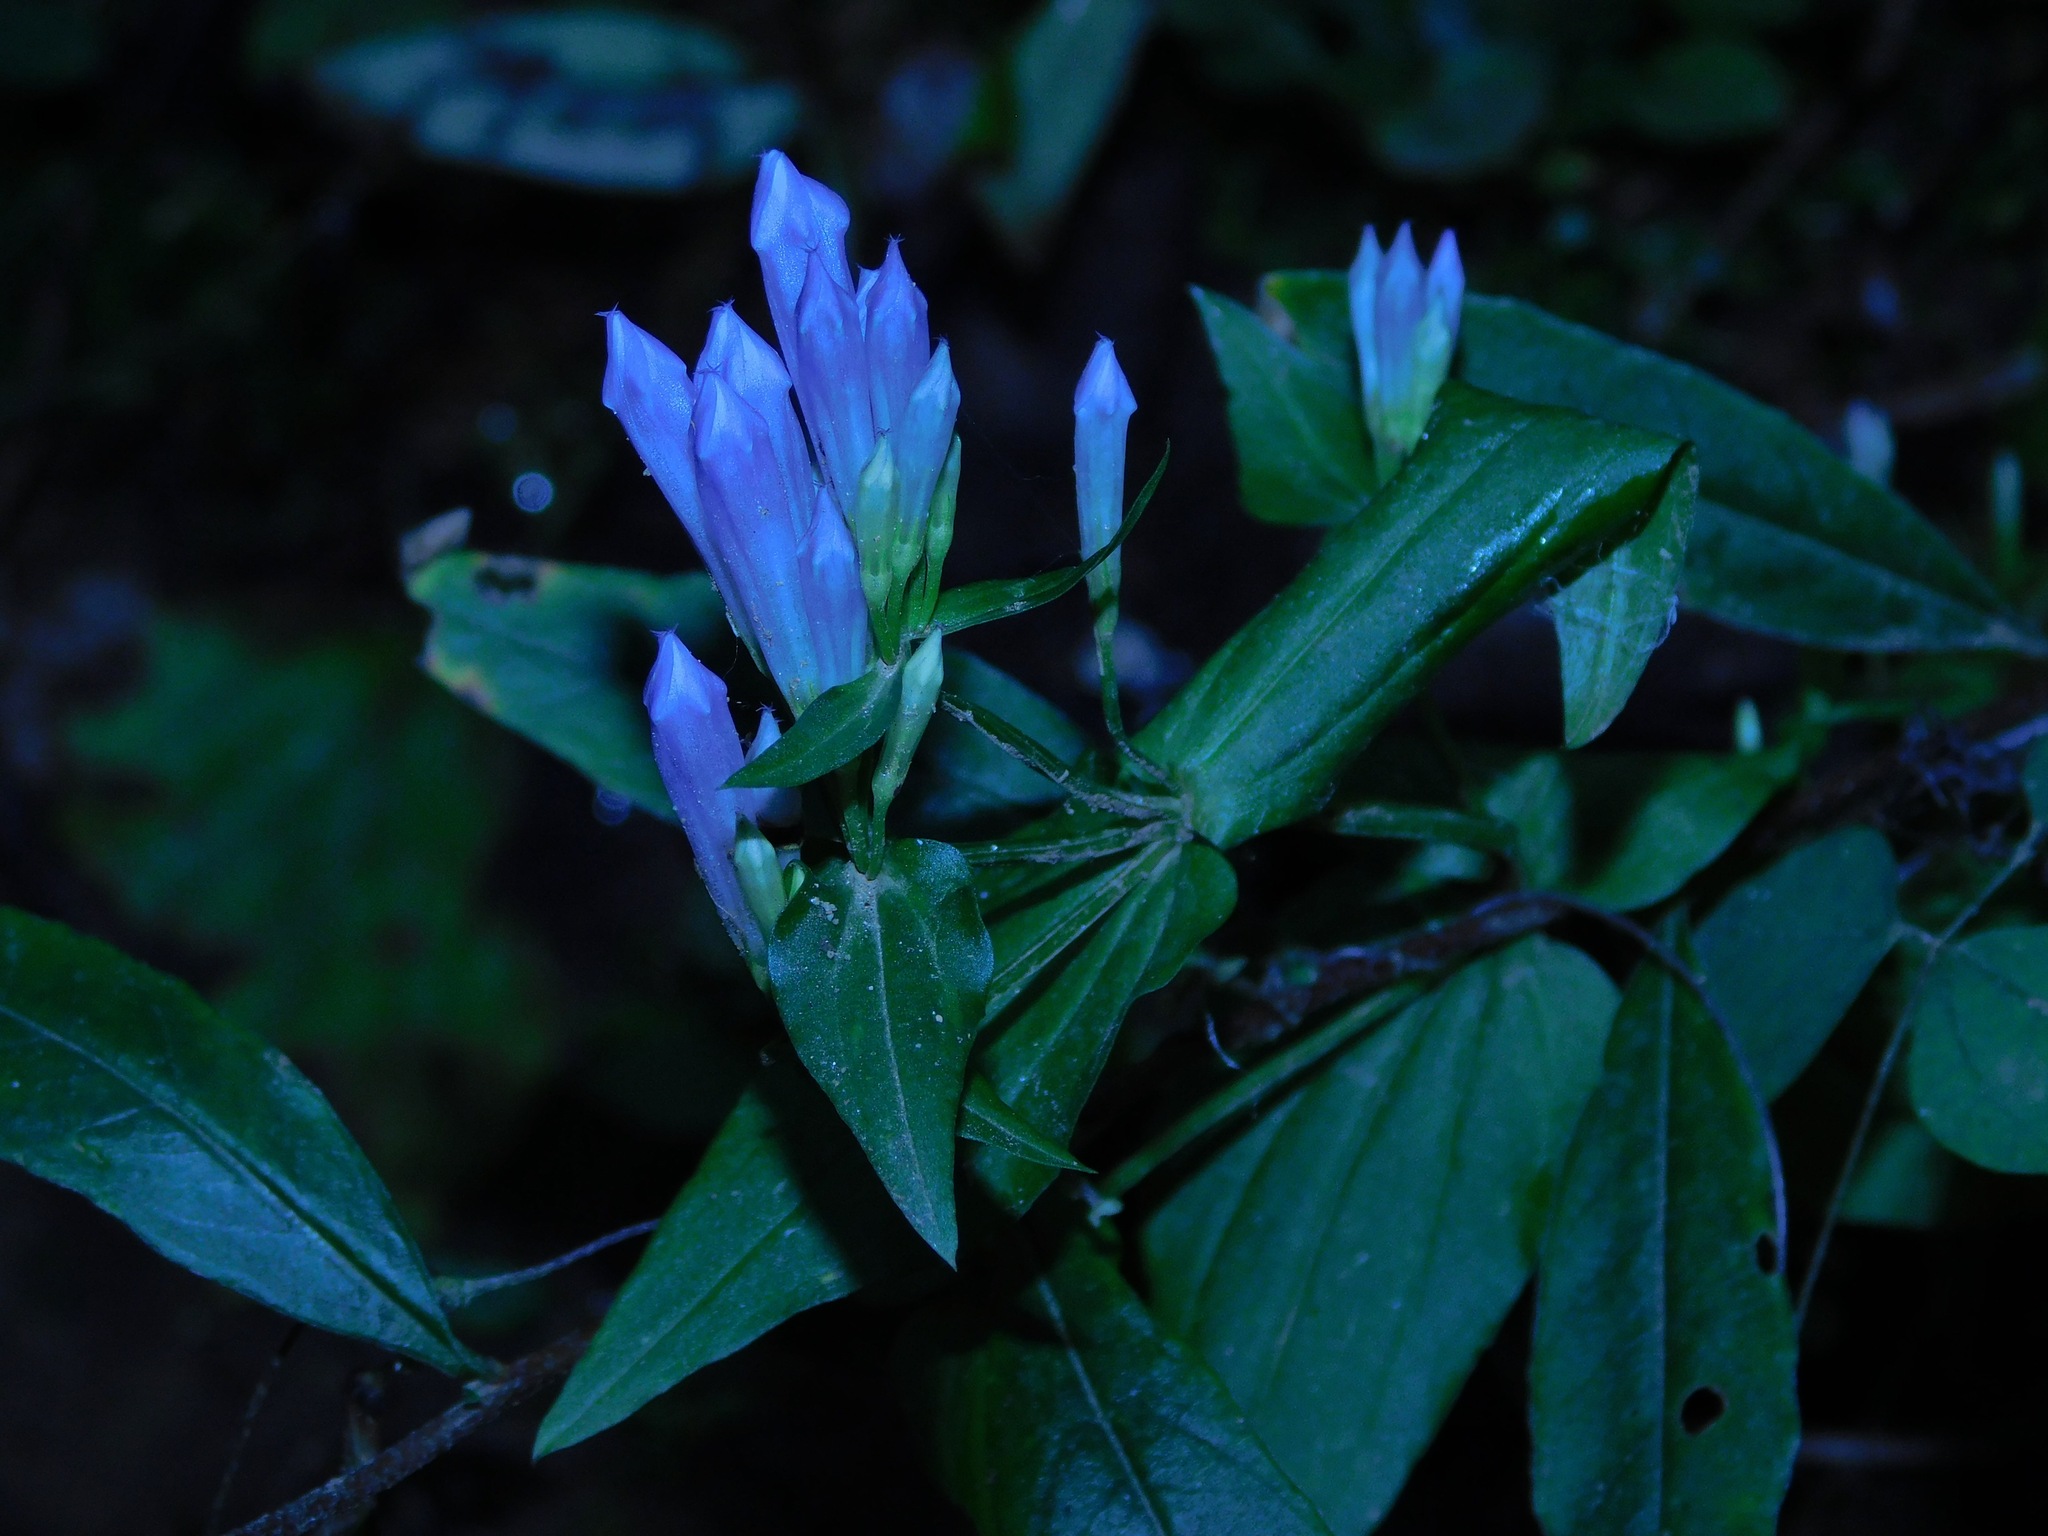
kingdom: Plantae
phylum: Tracheophyta
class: Magnoliopsida
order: Gentianales
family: Gentianaceae
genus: Gentianella
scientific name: Gentianella quinquefolia
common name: Agueweed
